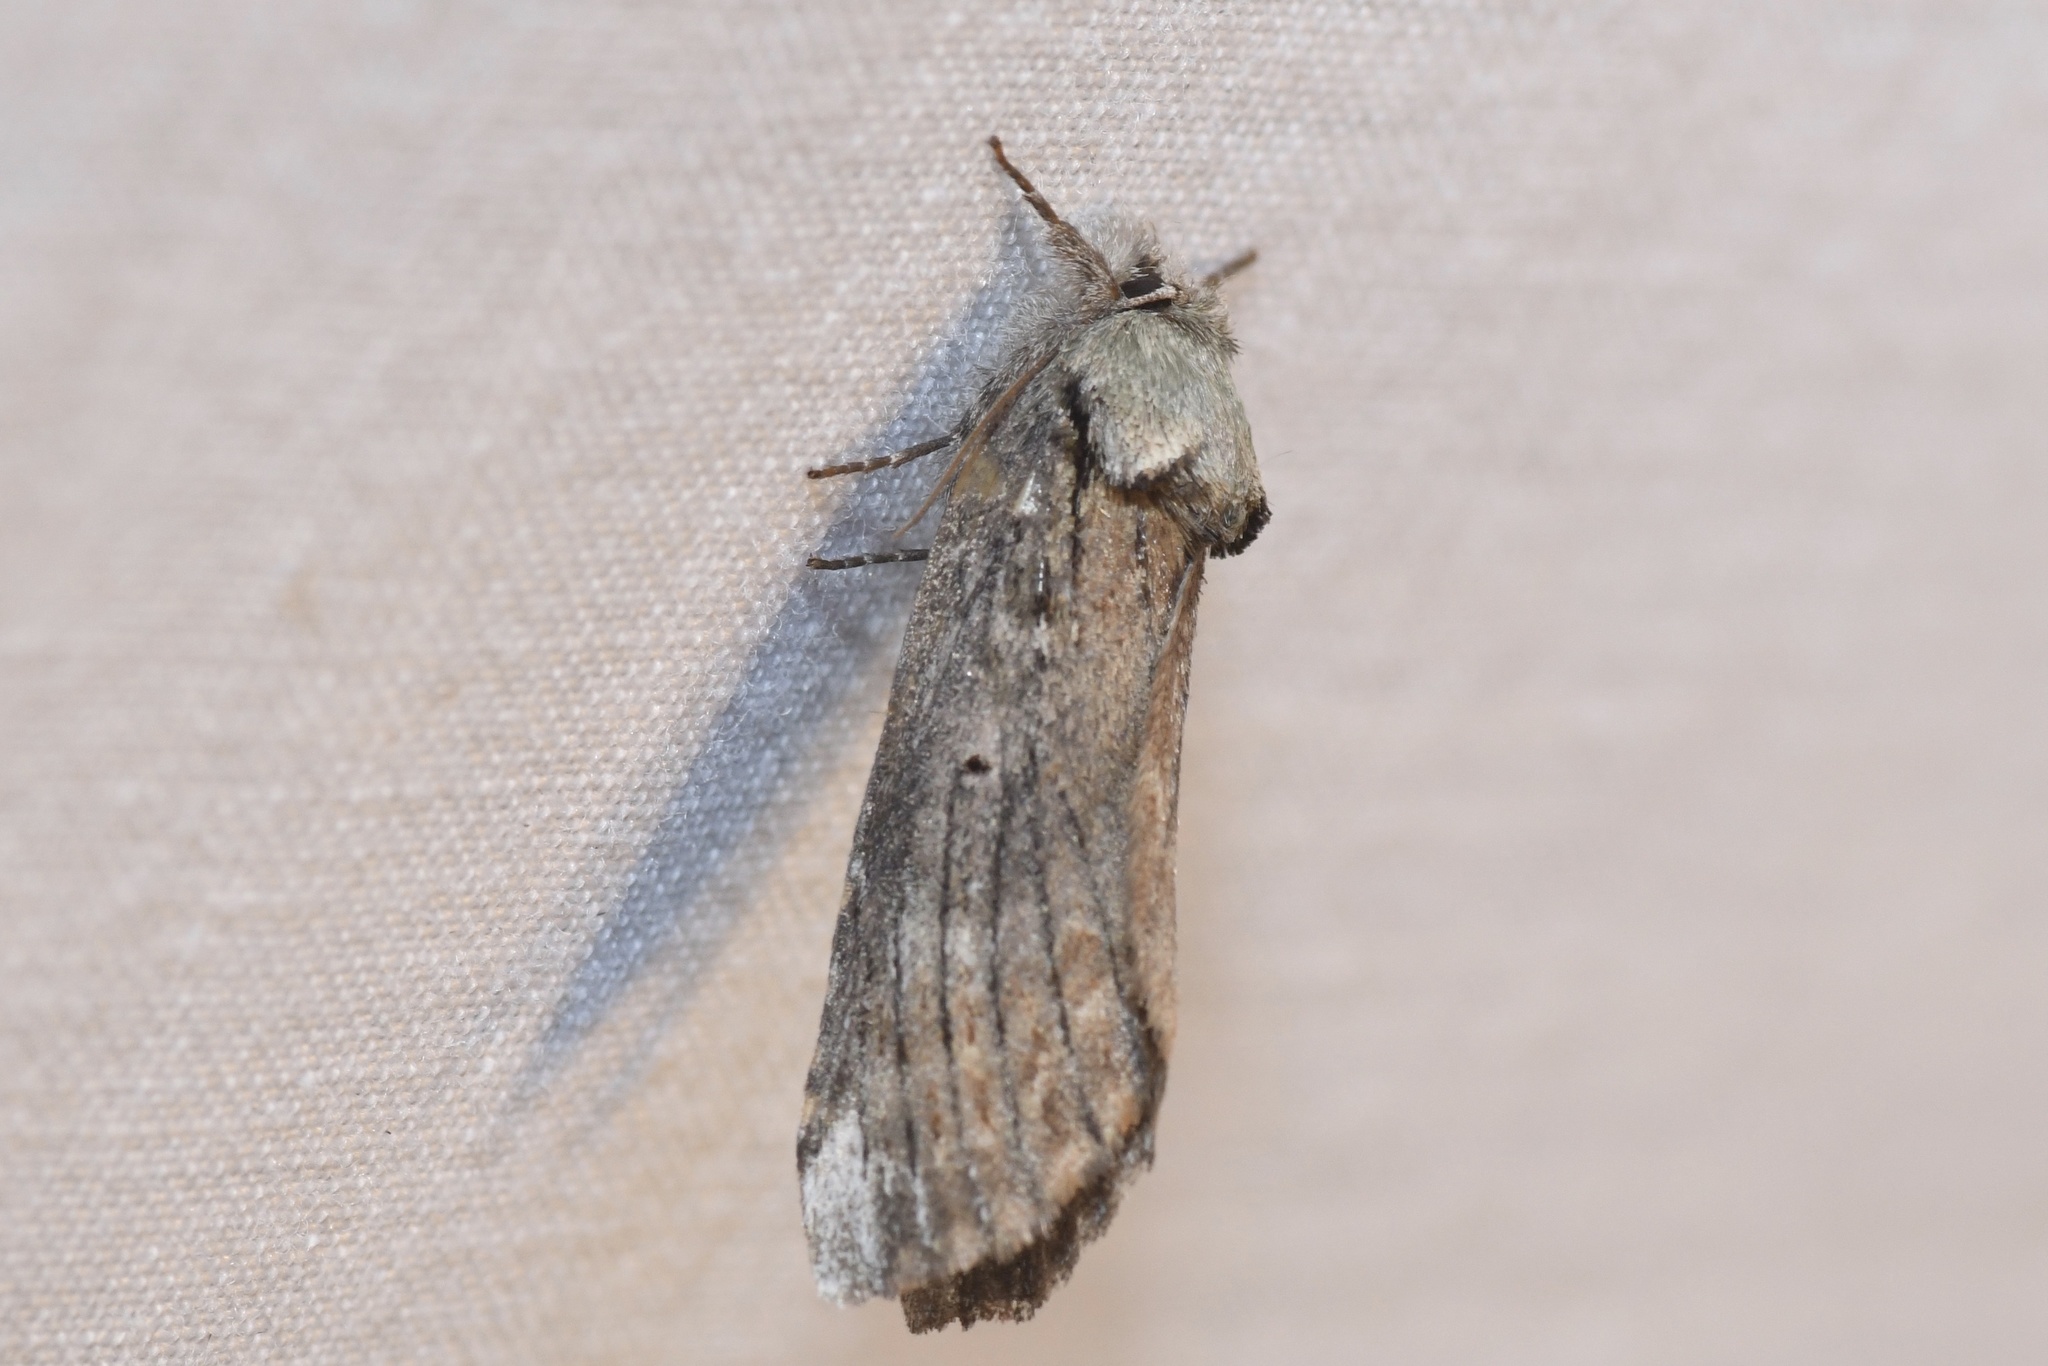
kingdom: Animalia
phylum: Arthropoda
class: Insecta
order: Lepidoptera
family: Notodontidae
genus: Schizura
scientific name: Schizura
